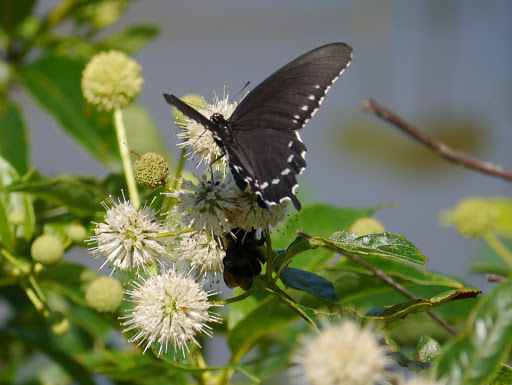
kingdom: Animalia
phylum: Arthropoda
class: Insecta
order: Lepidoptera
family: Papilionidae
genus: Battus
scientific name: Battus philenor
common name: Pipevine swallowtail
